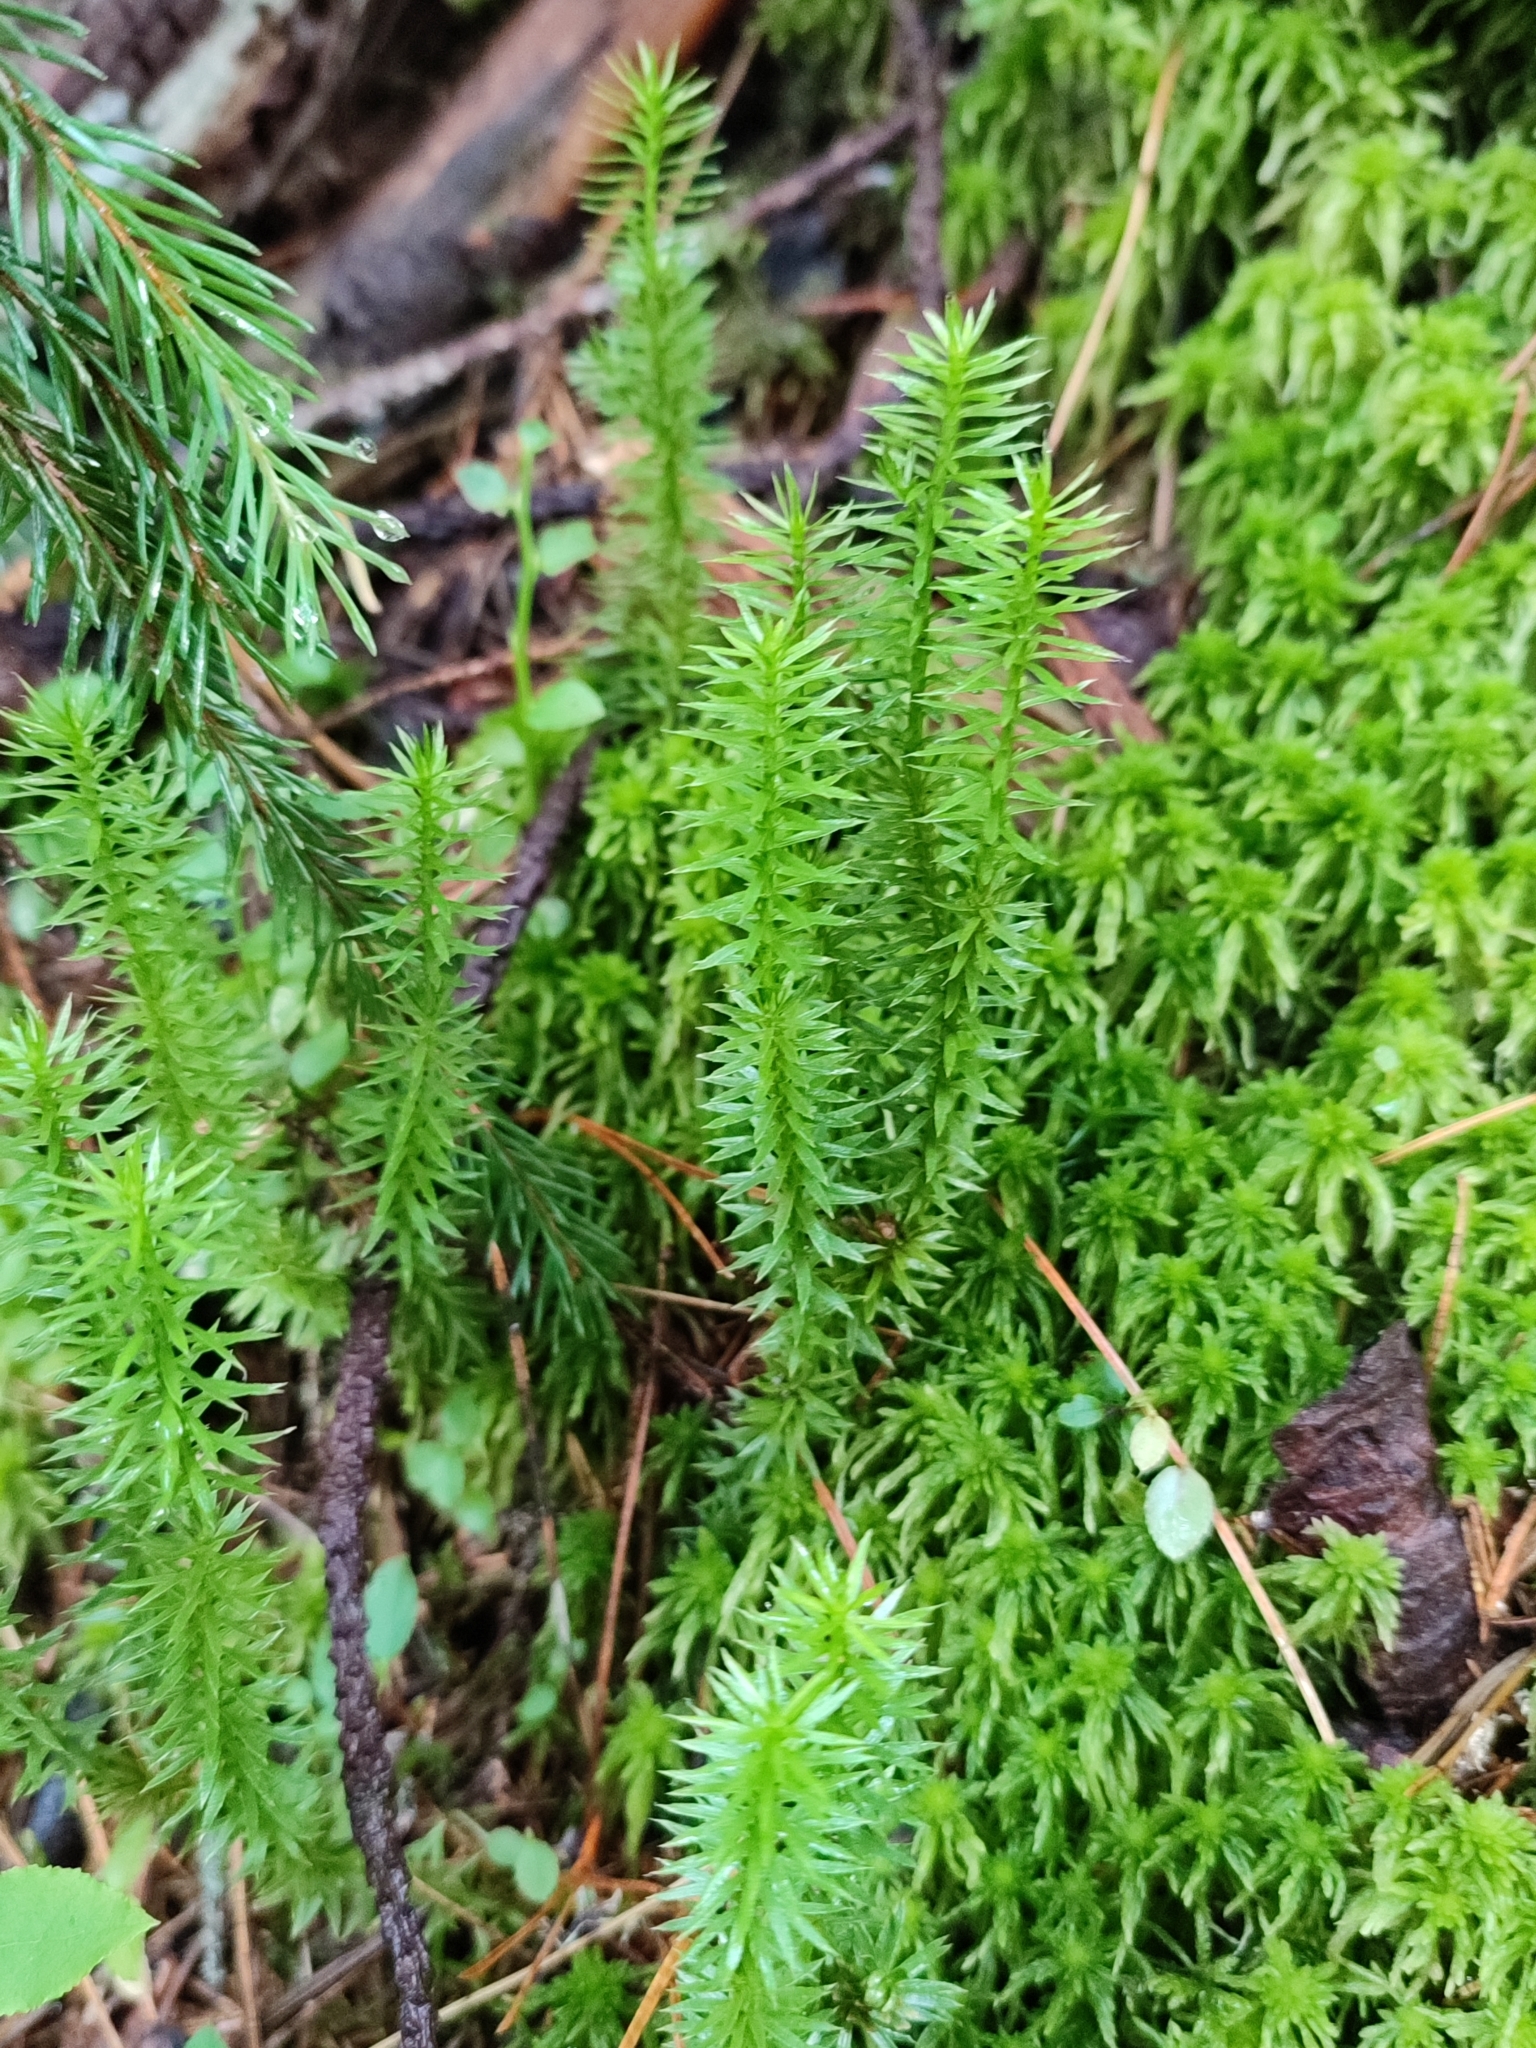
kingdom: Plantae
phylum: Tracheophyta
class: Lycopodiopsida
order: Lycopodiales
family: Lycopodiaceae
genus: Spinulum
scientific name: Spinulum annotinum
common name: Interrupted club-moss
